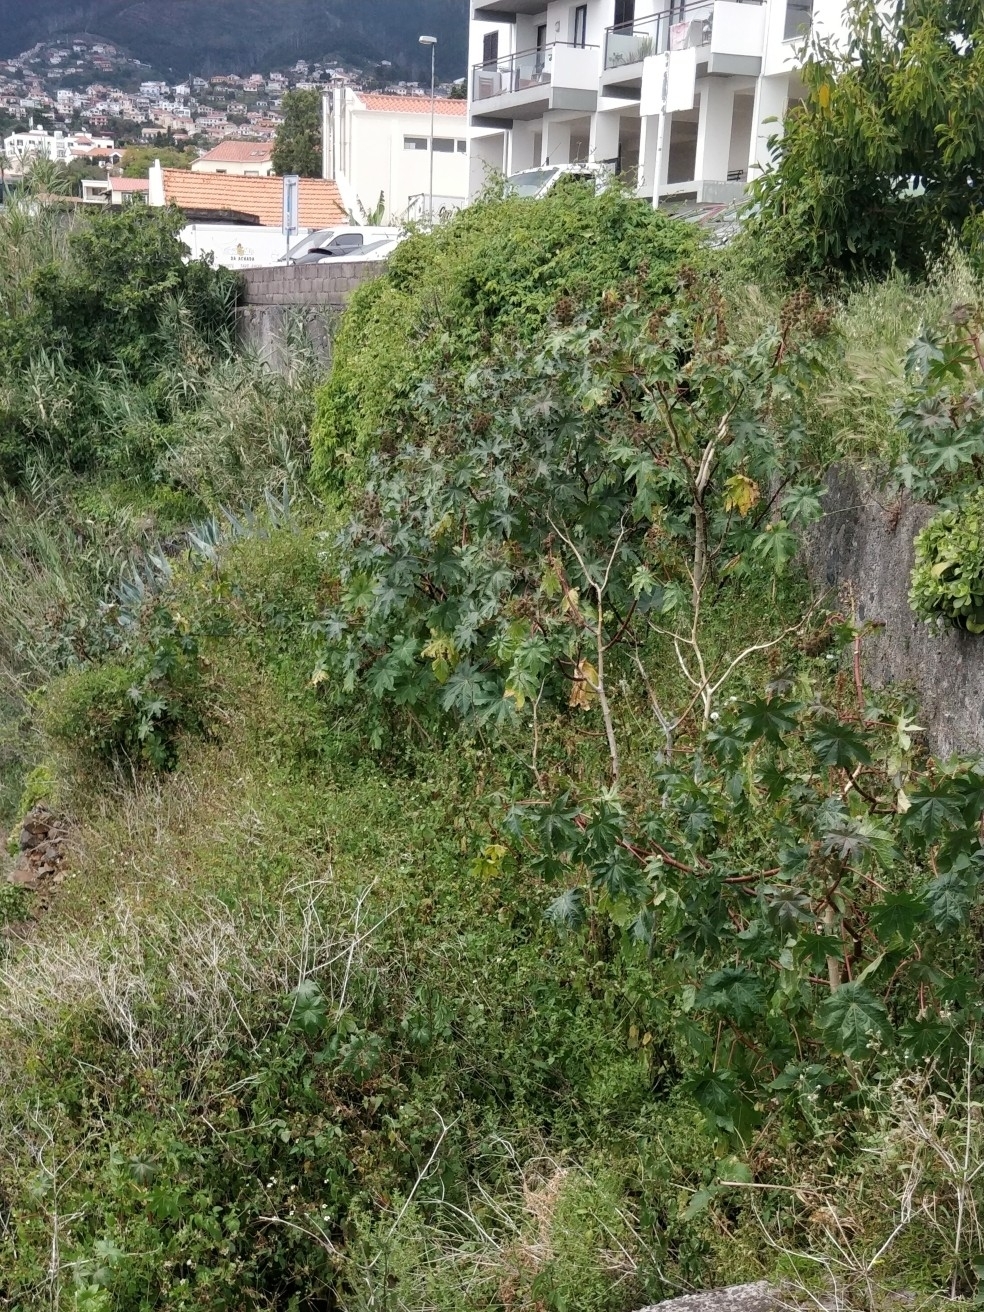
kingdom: Plantae
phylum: Tracheophyta
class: Magnoliopsida
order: Malpighiales
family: Euphorbiaceae
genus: Ricinus
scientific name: Ricinus communis
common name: Castor-oil-plant
